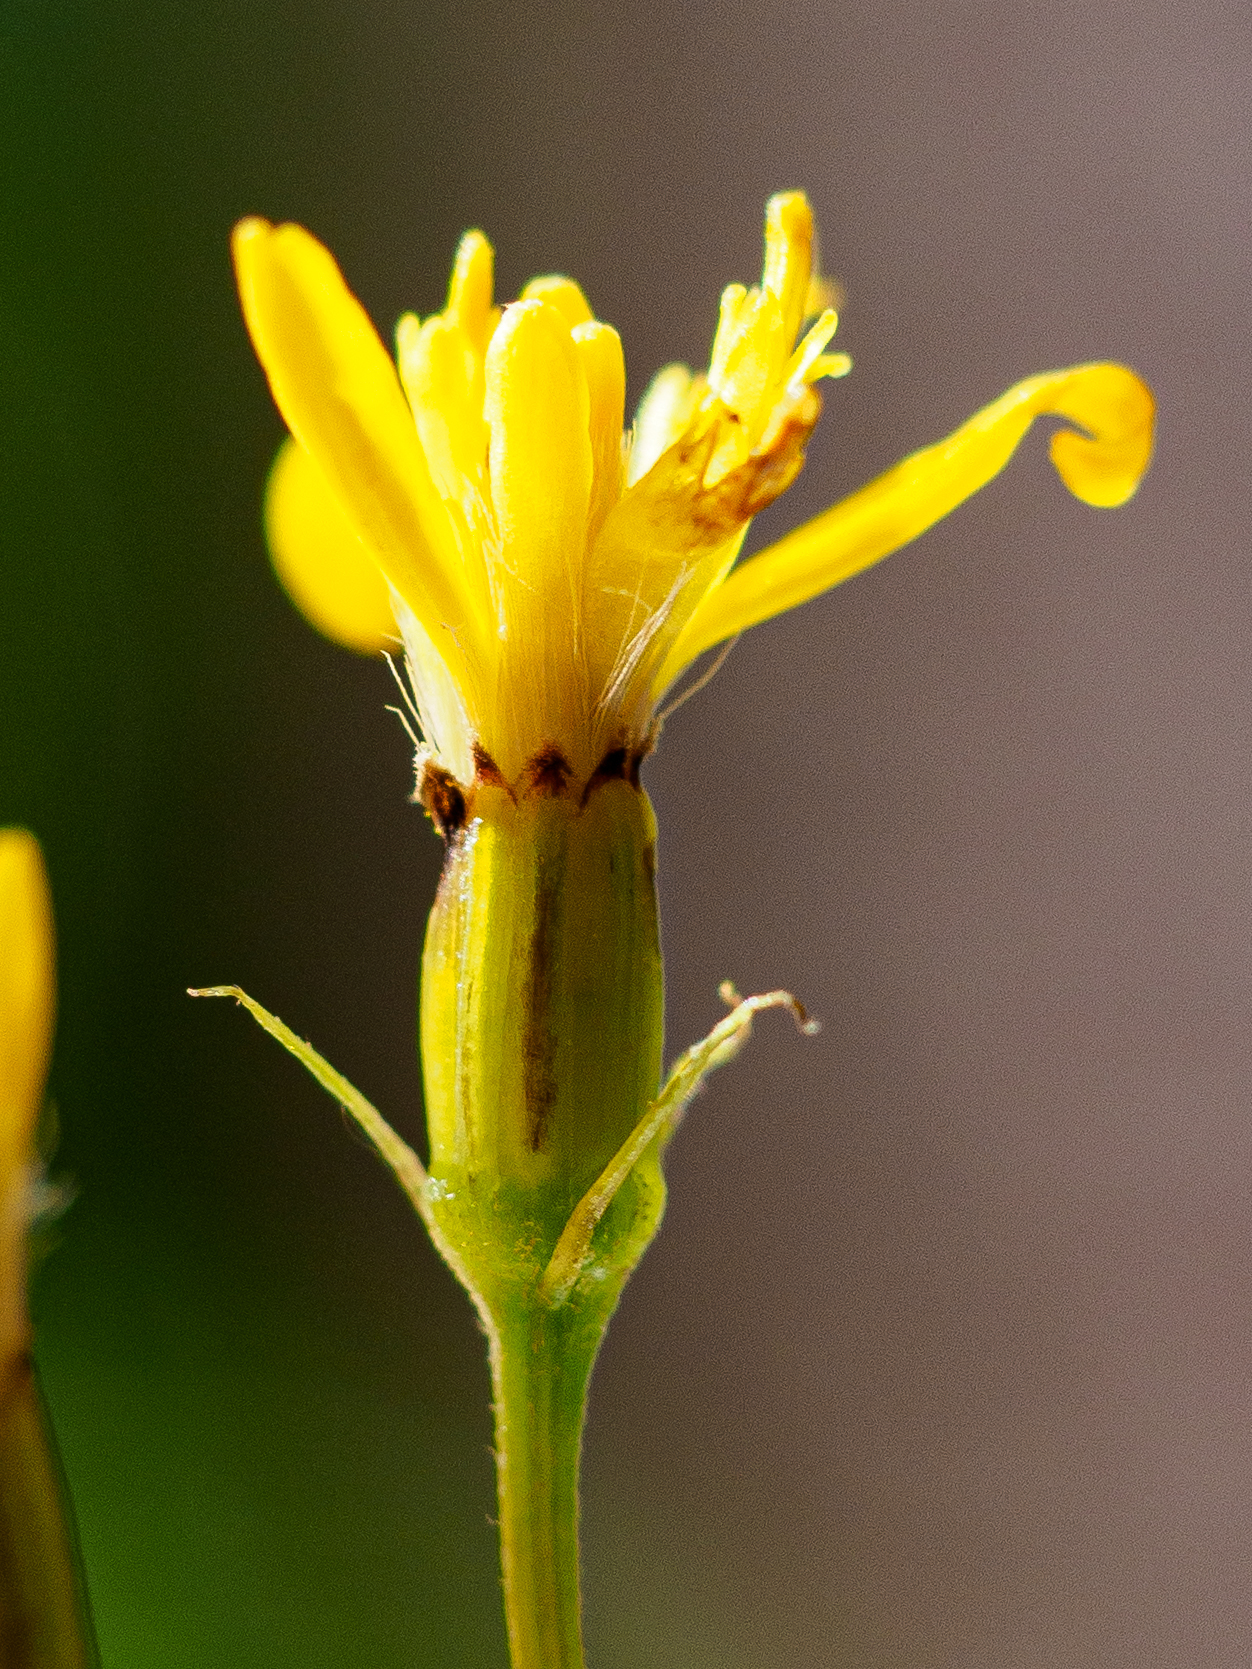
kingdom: Plantae
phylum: Tracheophyta
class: Magnoliopsida
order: Asterales
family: Asteraceae
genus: Senecio
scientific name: Senecio ovatus
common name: Wood ragwort
